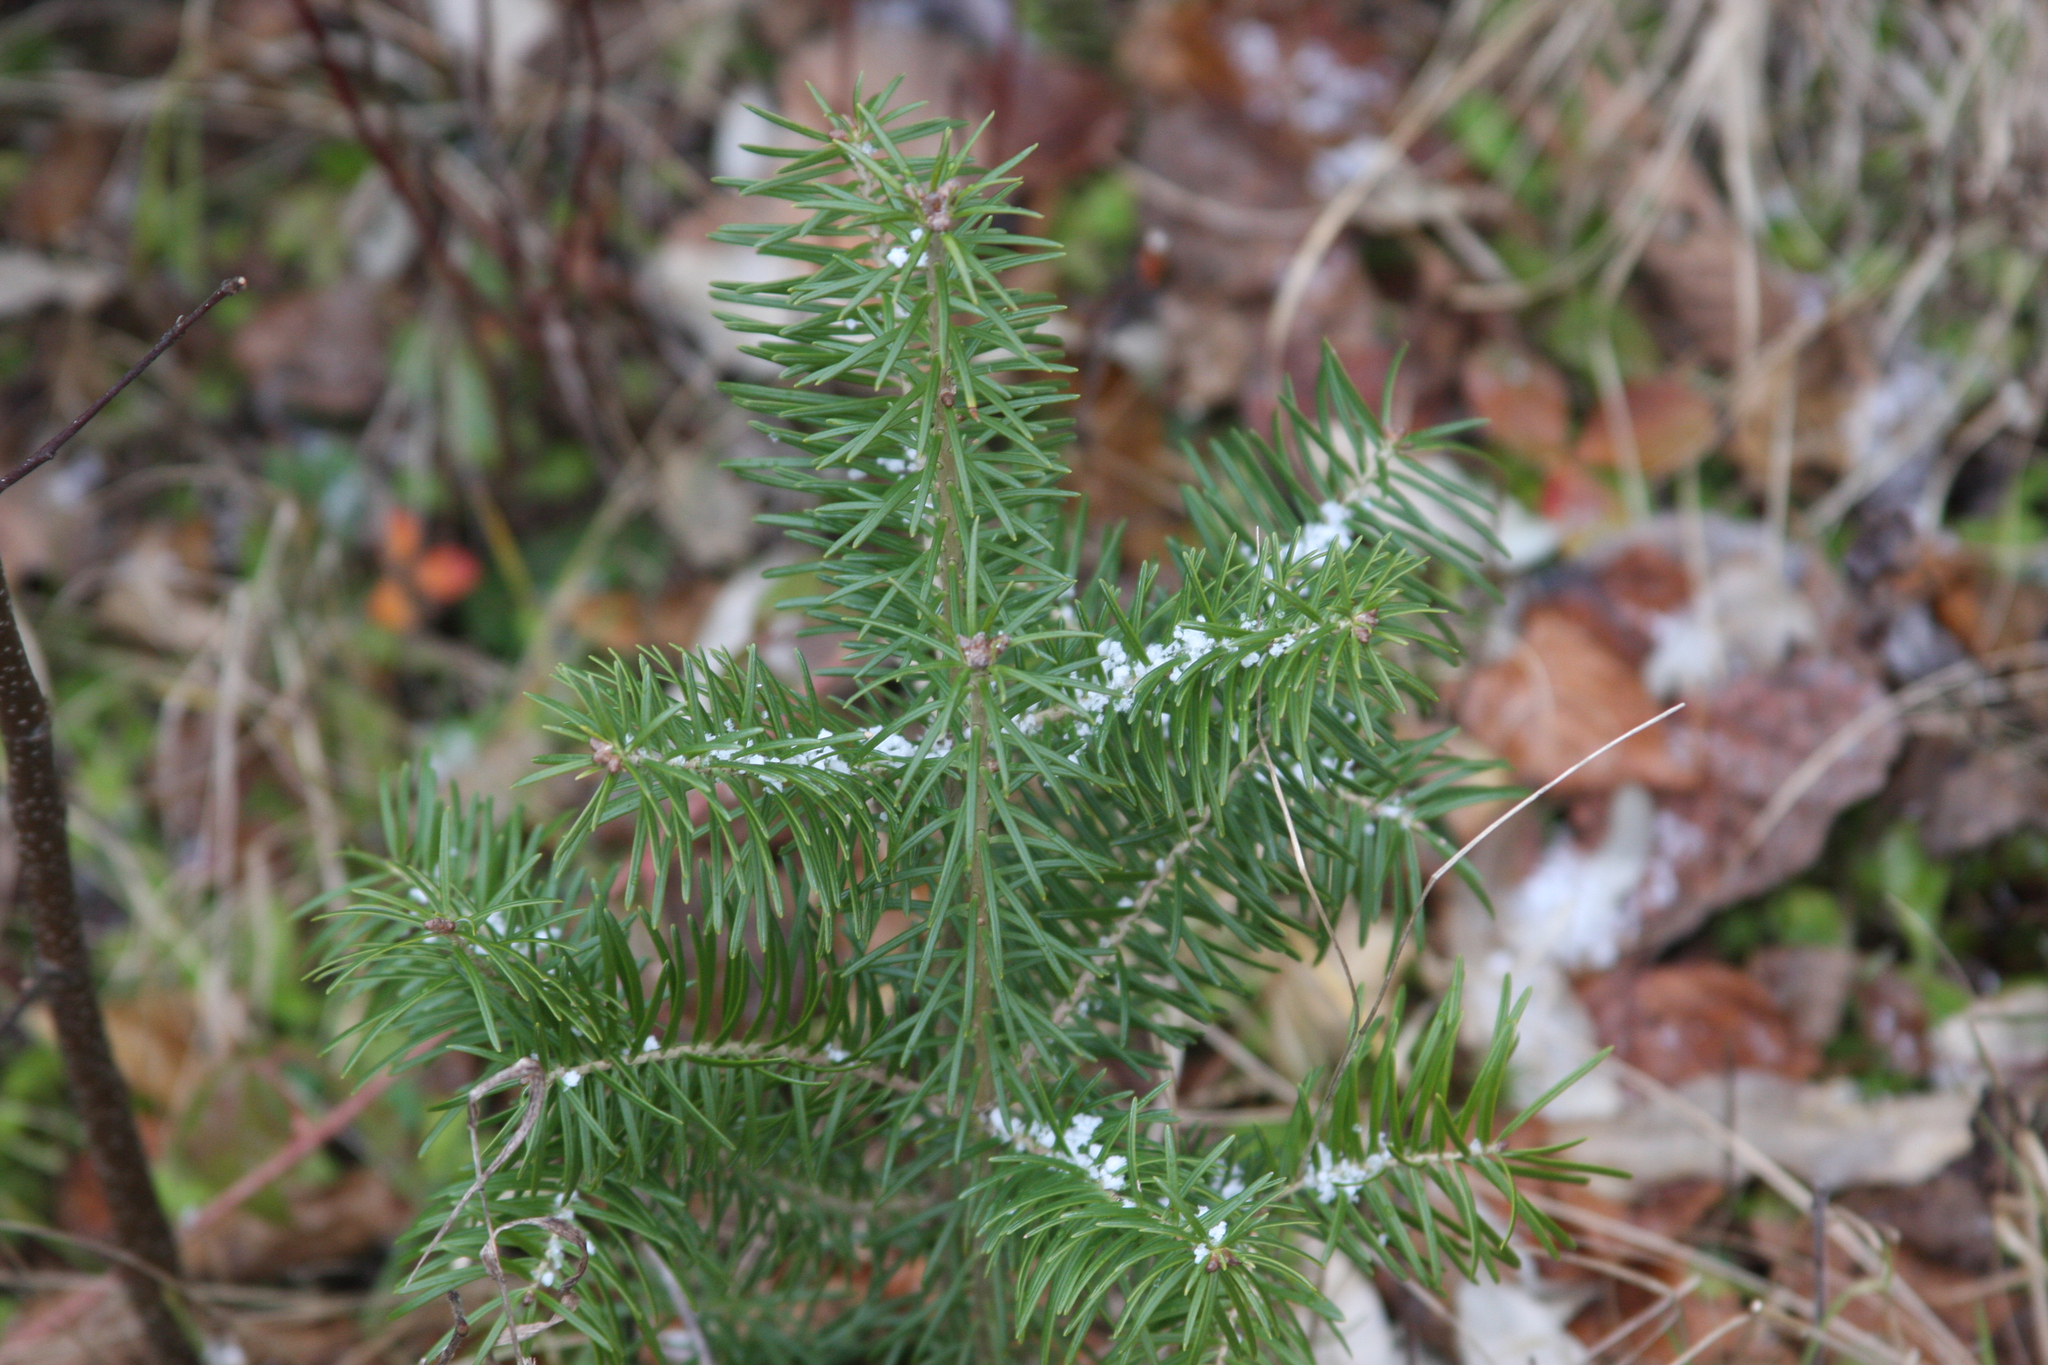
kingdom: Plantae
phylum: Tracheophyta
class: Pinopsida
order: Pinales
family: Pinaceae
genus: Abies
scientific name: Abies balsamea
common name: Balsam fir
